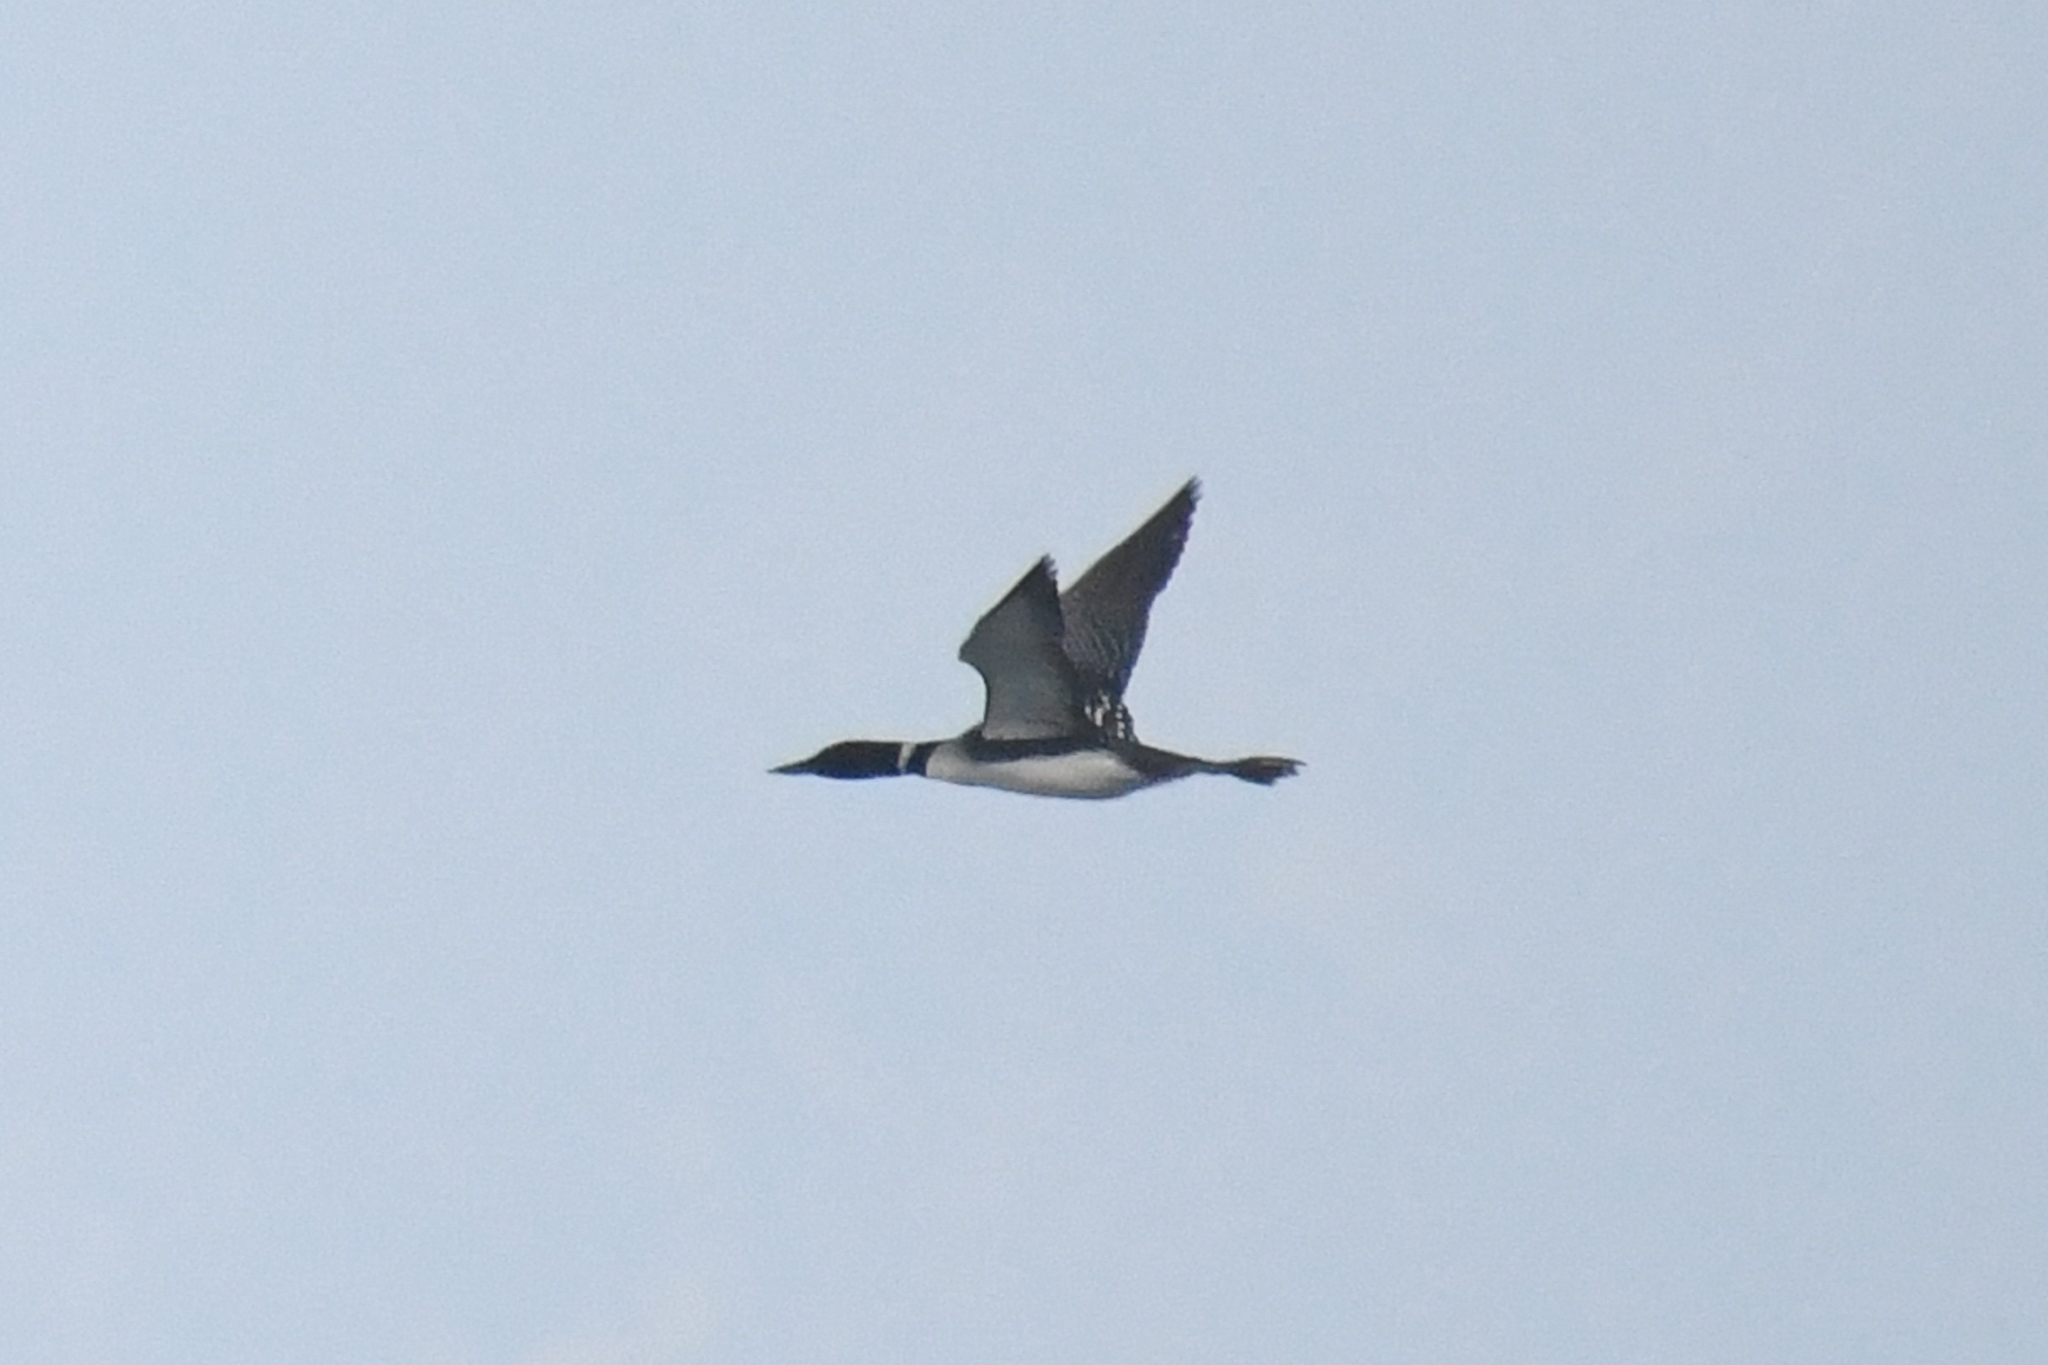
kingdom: Animalia
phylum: Chordata
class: Aves
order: Gaviiformes
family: Gaviidae
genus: Gavia
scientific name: Gavia immer
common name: Common loon
